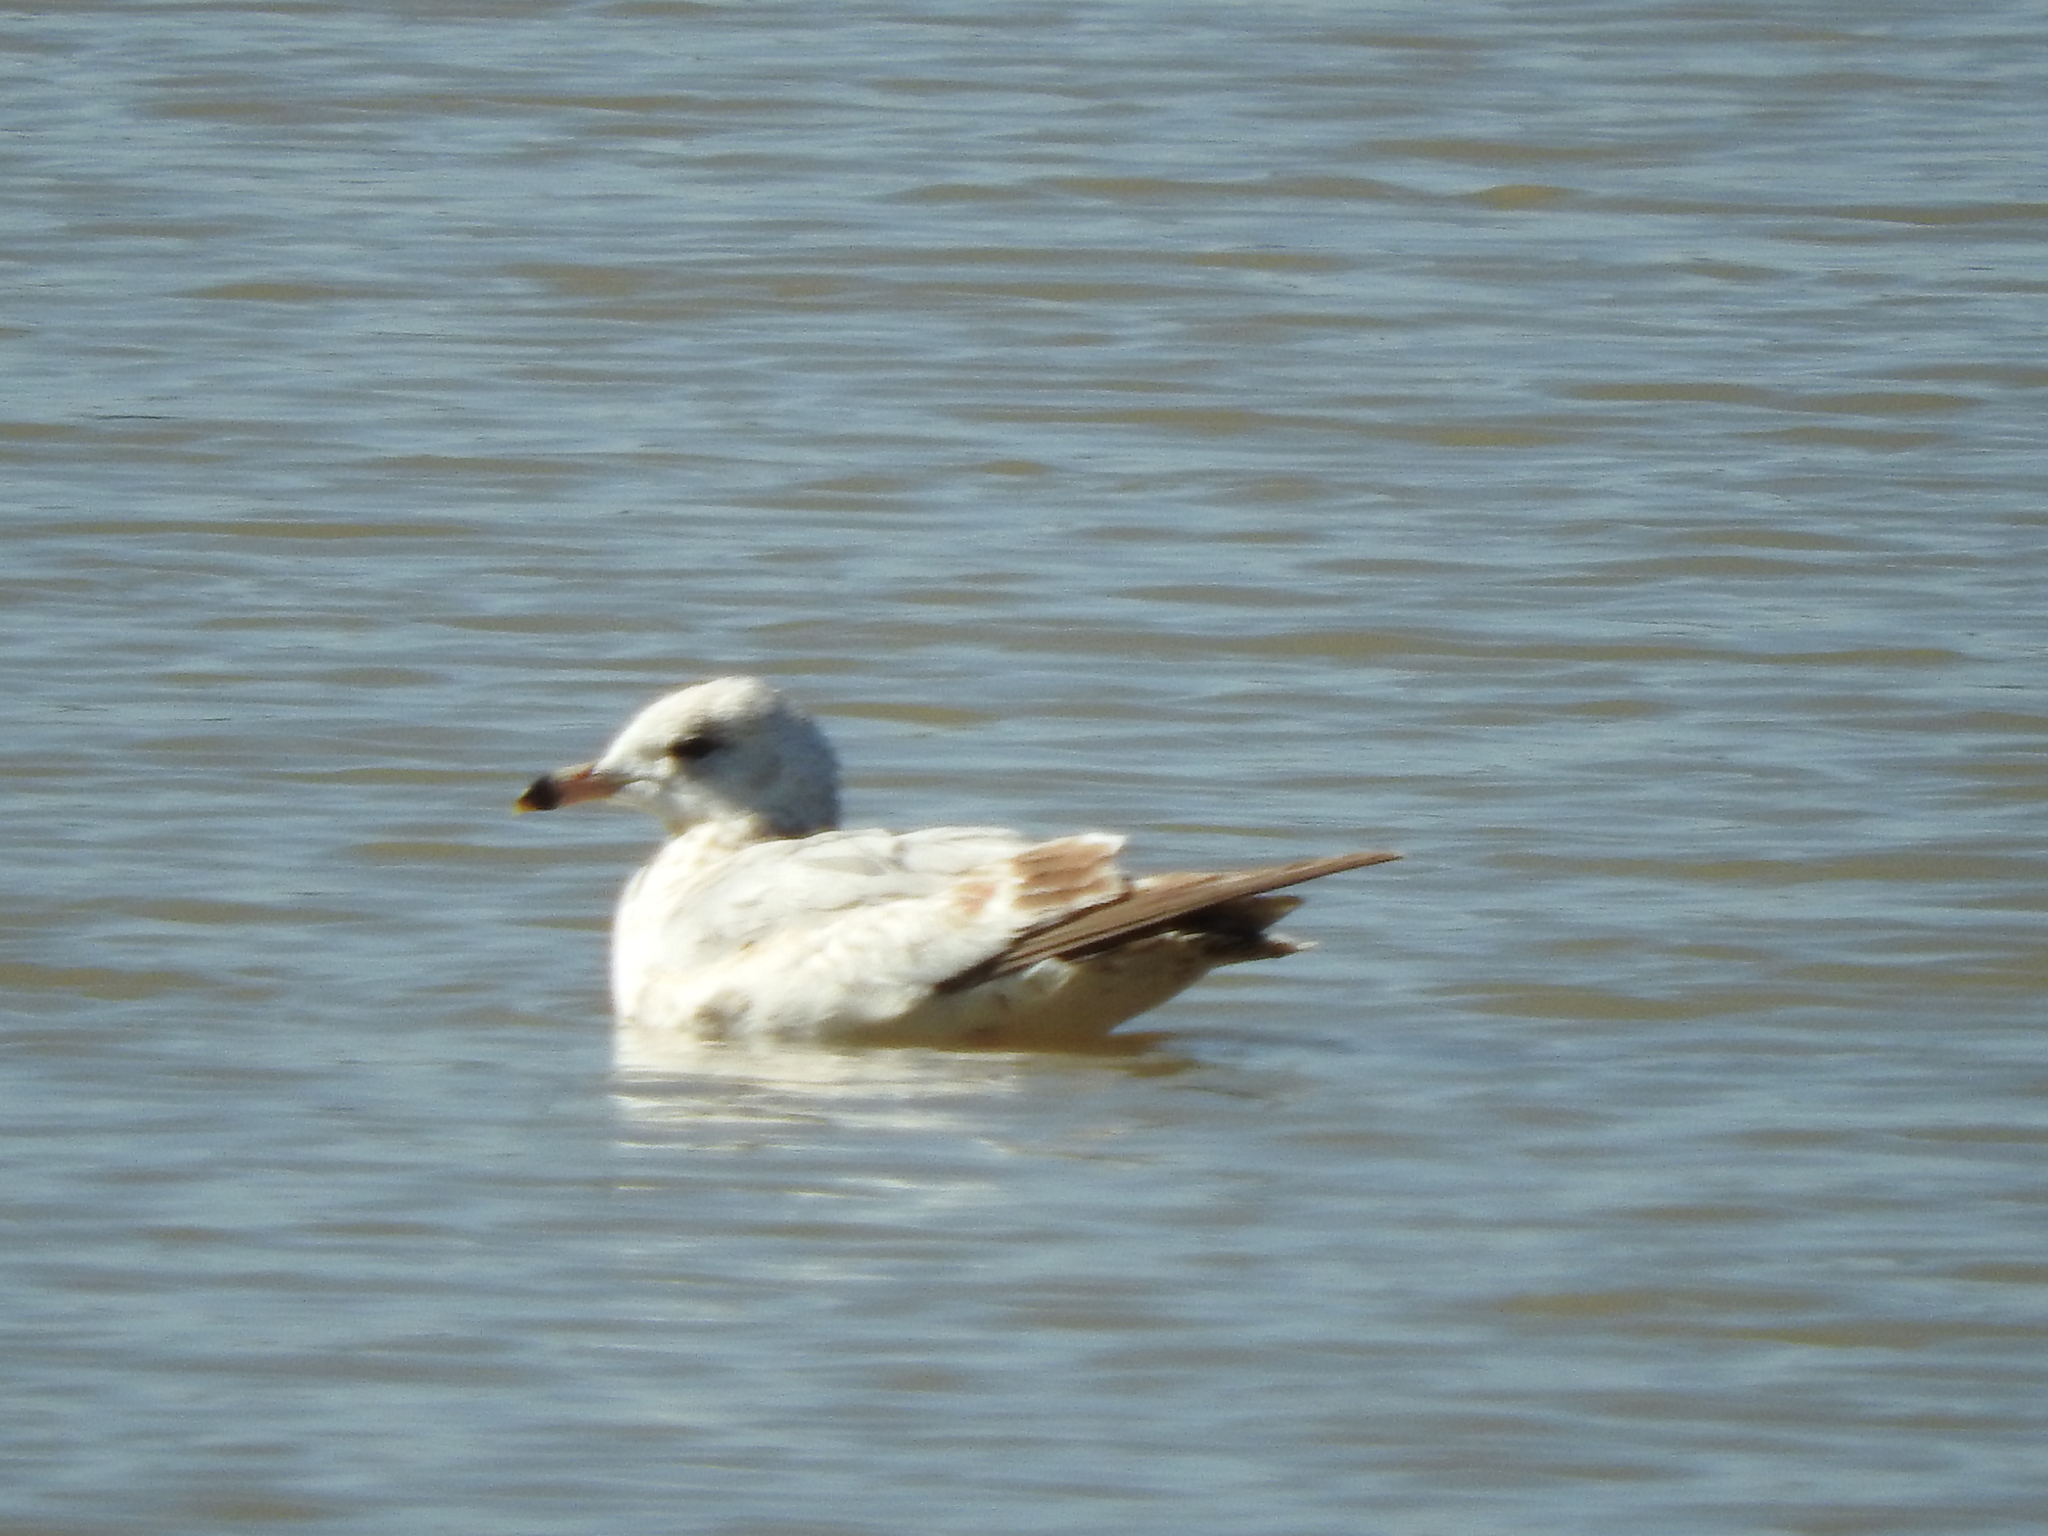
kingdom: Animalia
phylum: Chordata
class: Aves
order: Charadriiformes
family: Laridae
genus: Larus
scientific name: Larus delawarensis
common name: Ring-billed gull
